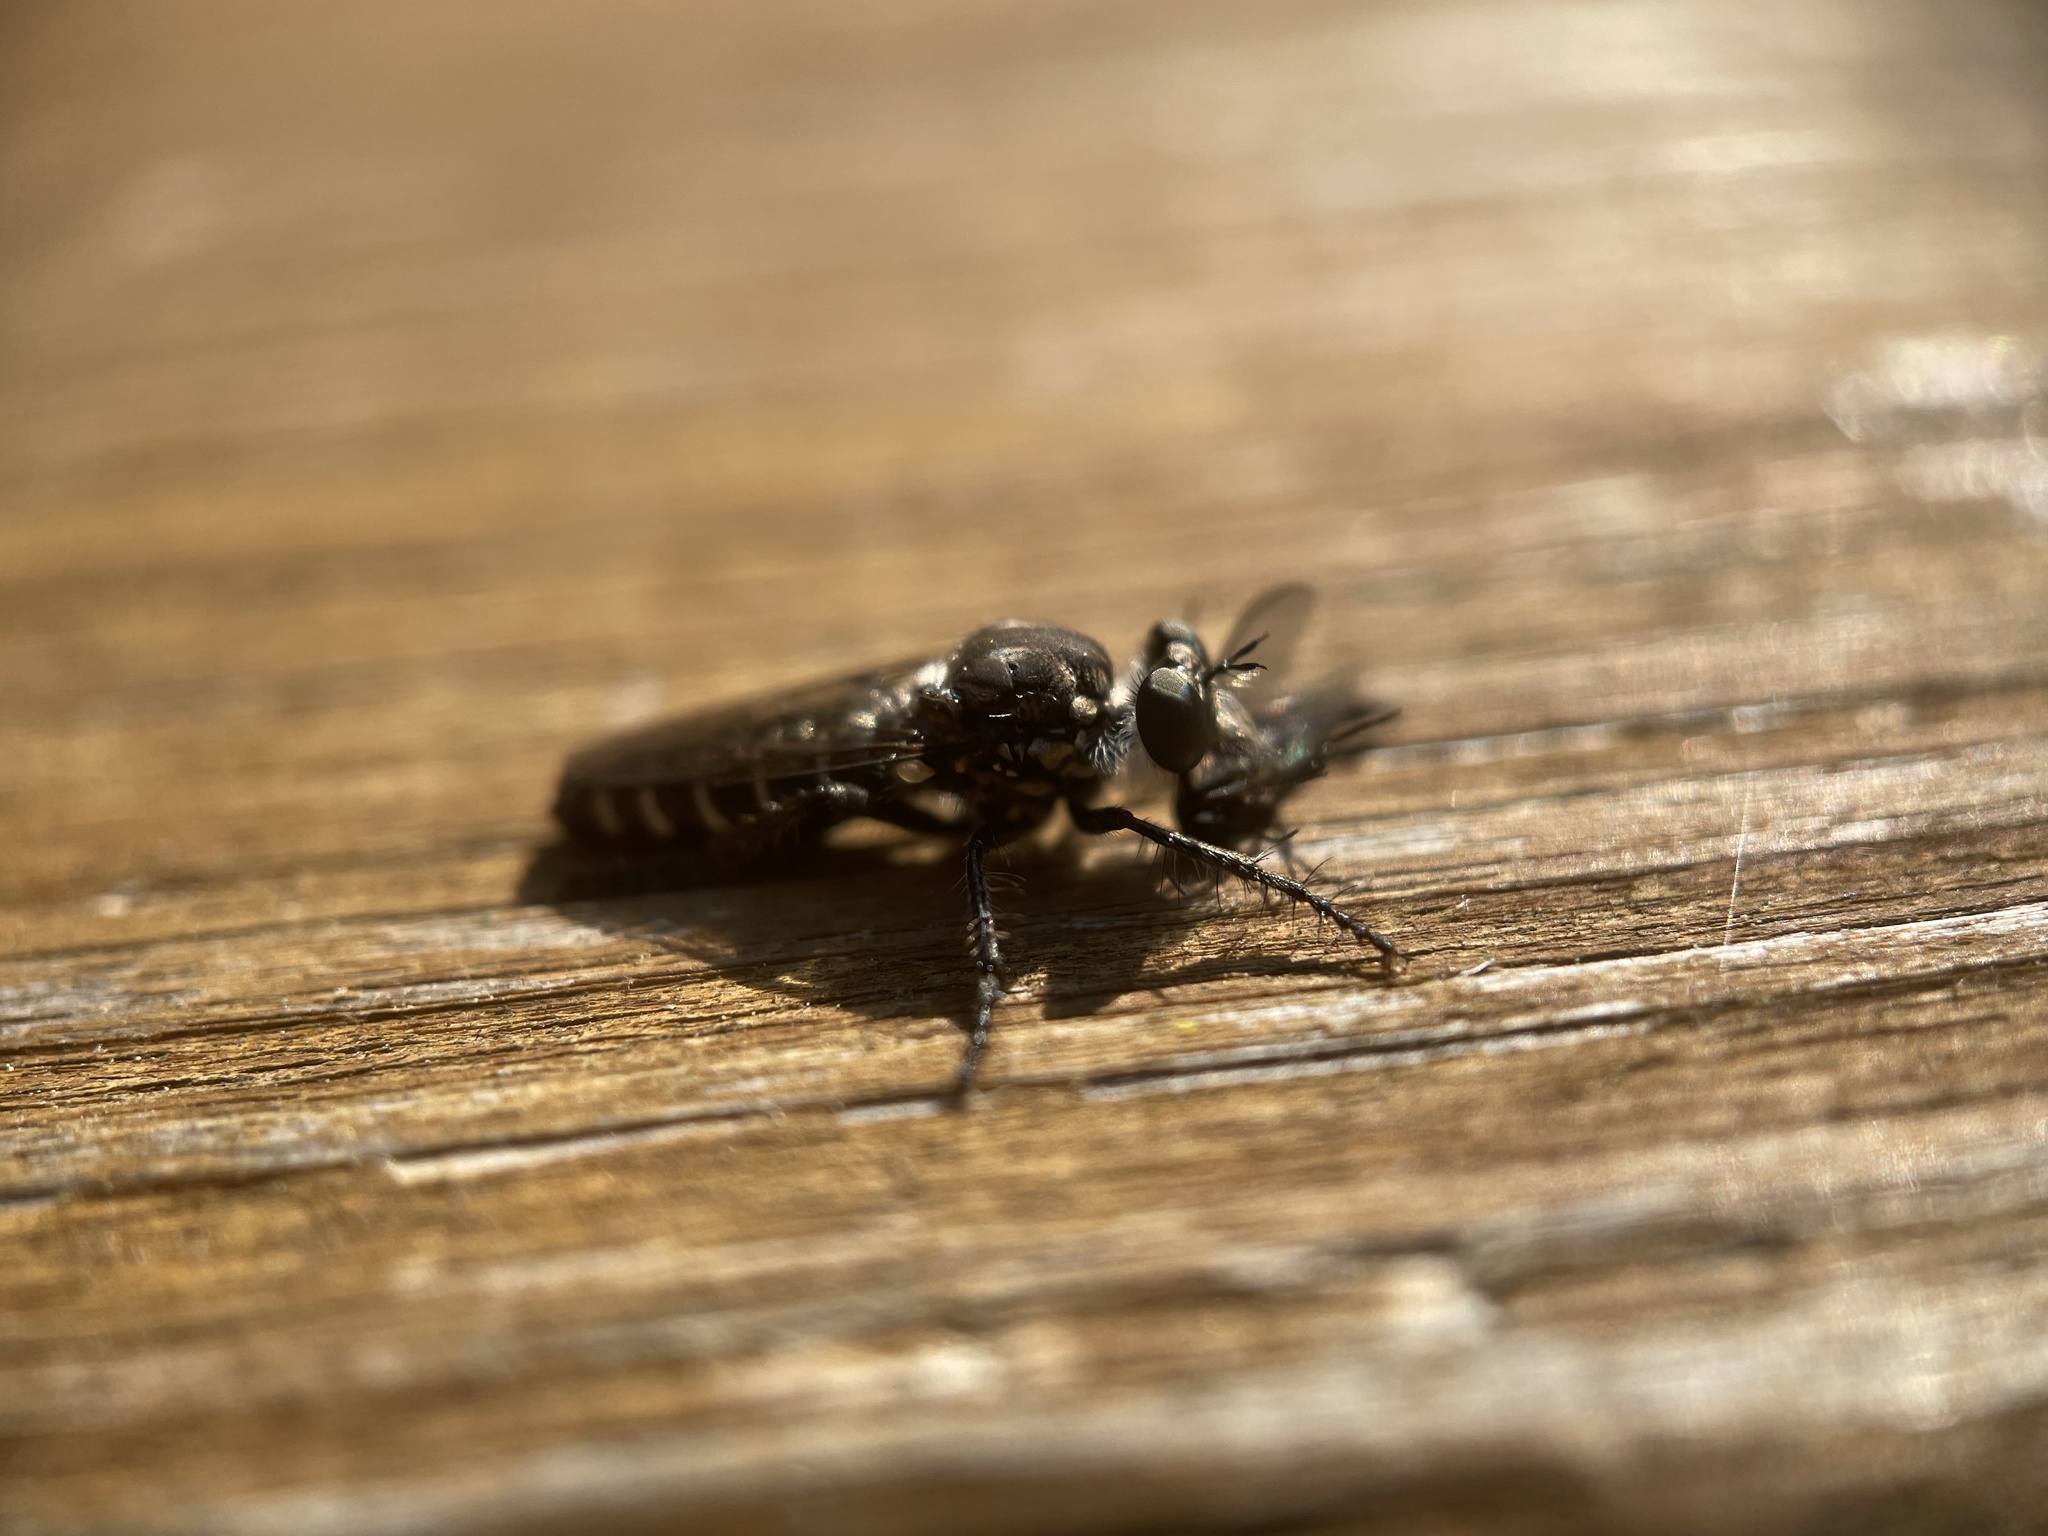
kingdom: Animalia
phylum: Arthropoda
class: Insecta
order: Diptera
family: Asilidae
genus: Cyrtopogon
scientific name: Cyrtopogon lutatius
